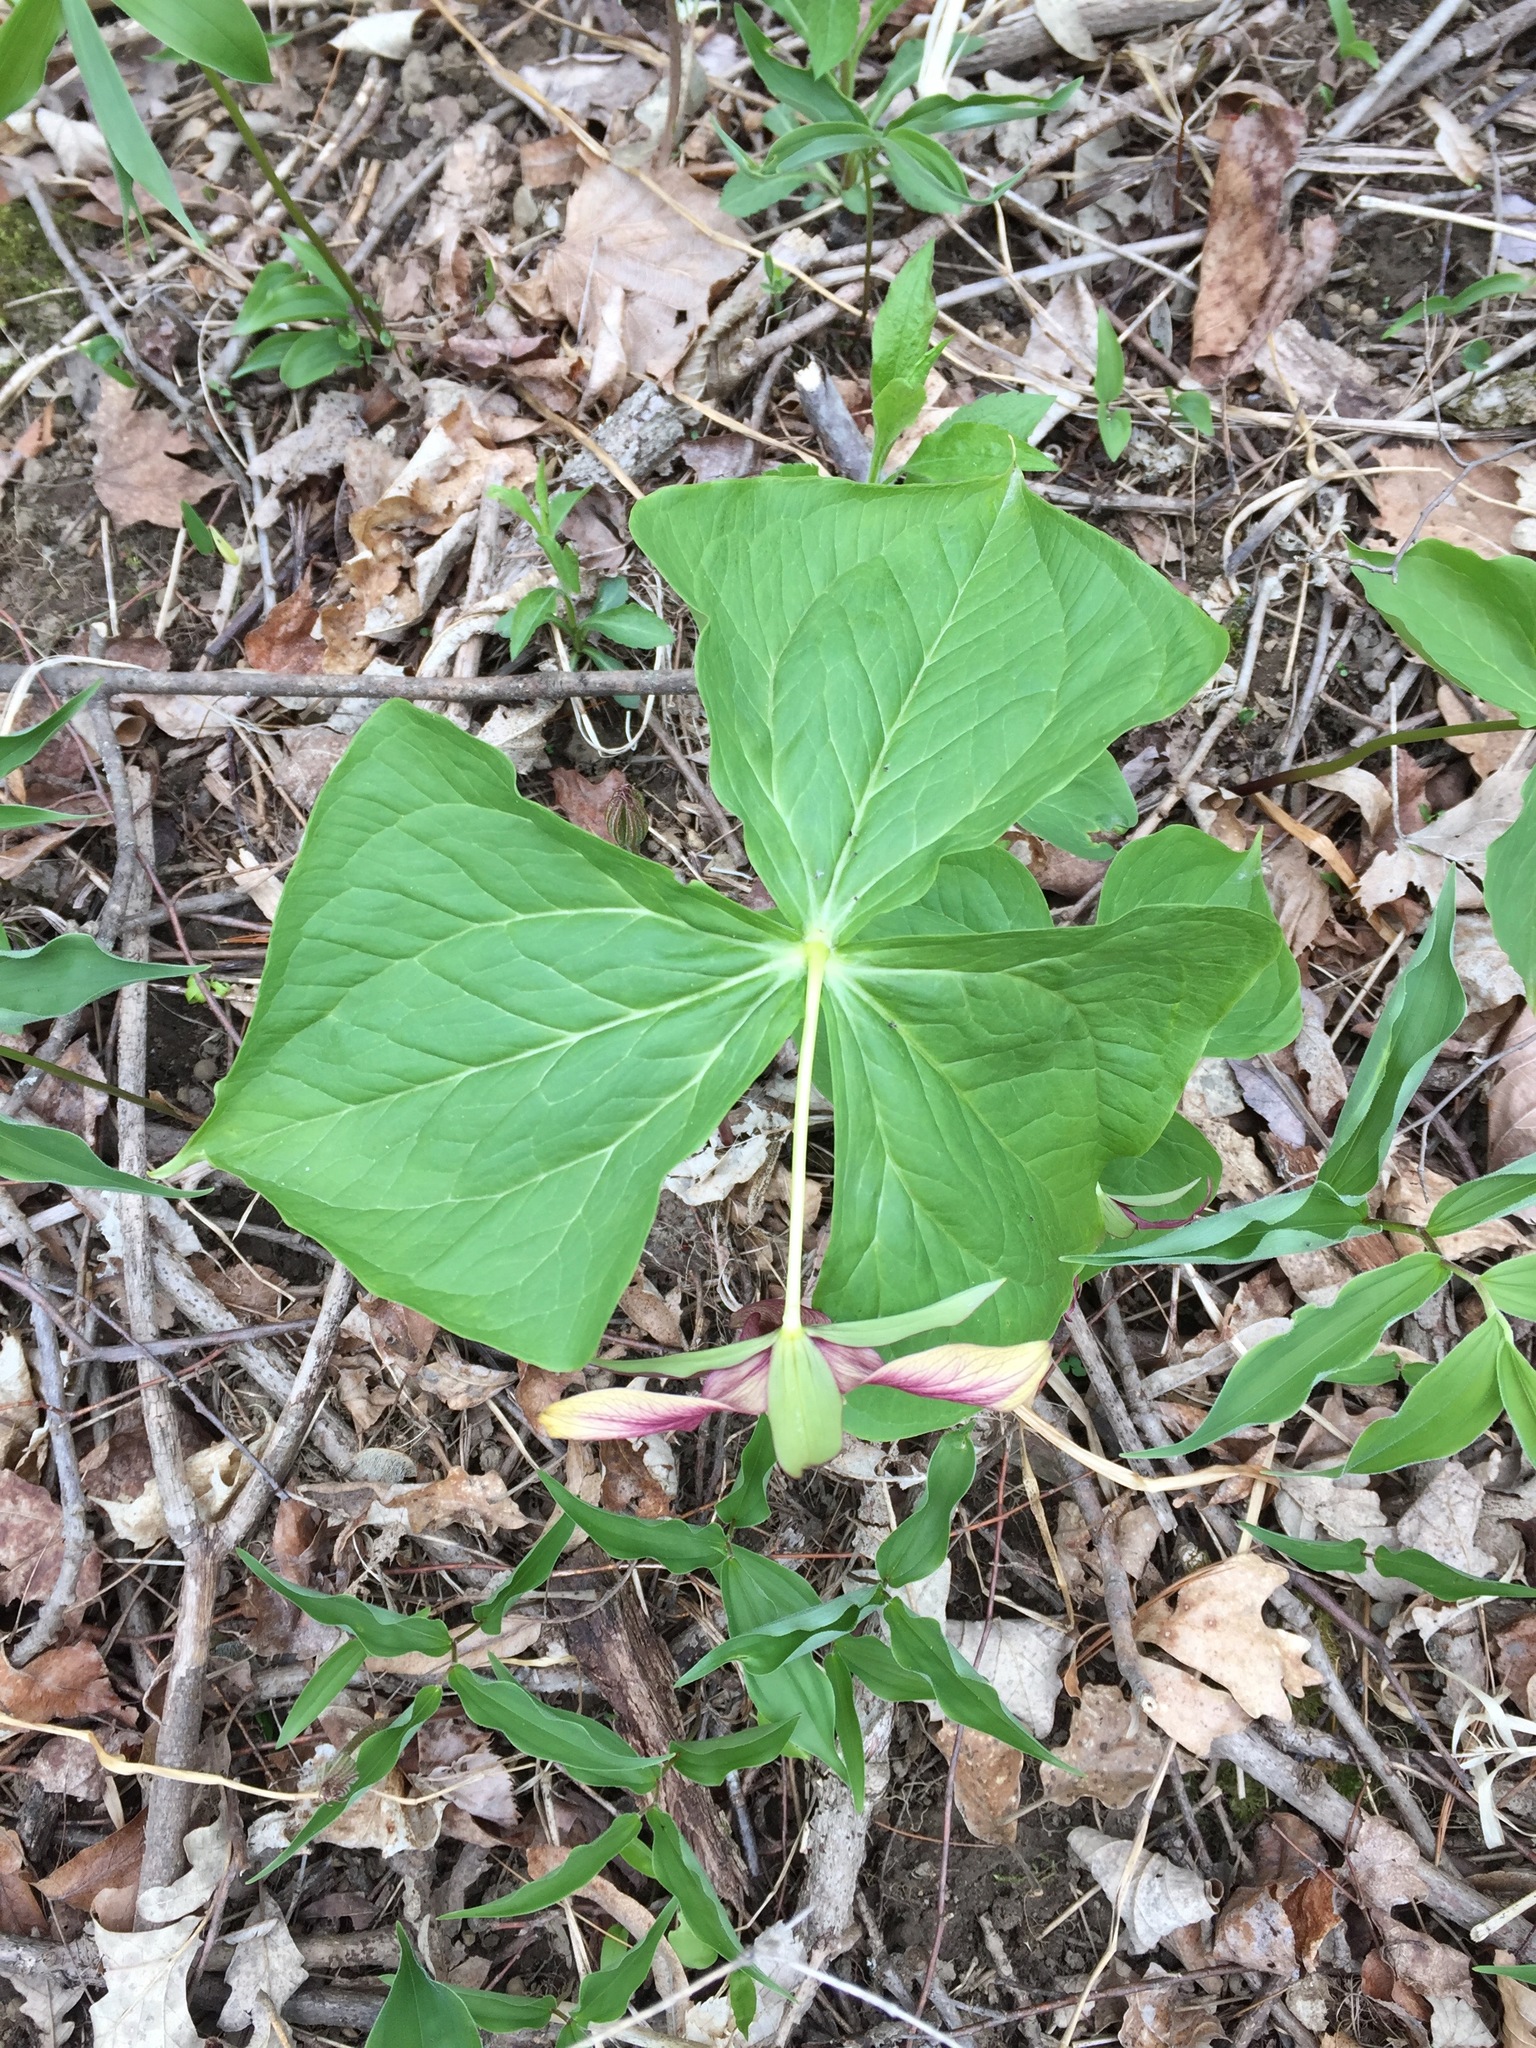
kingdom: Plantae
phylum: Tracheophyta
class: Liliopsida
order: Liliales
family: Melanthiaceae
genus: Trillium
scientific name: Trillium erectum
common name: Purple trillium
